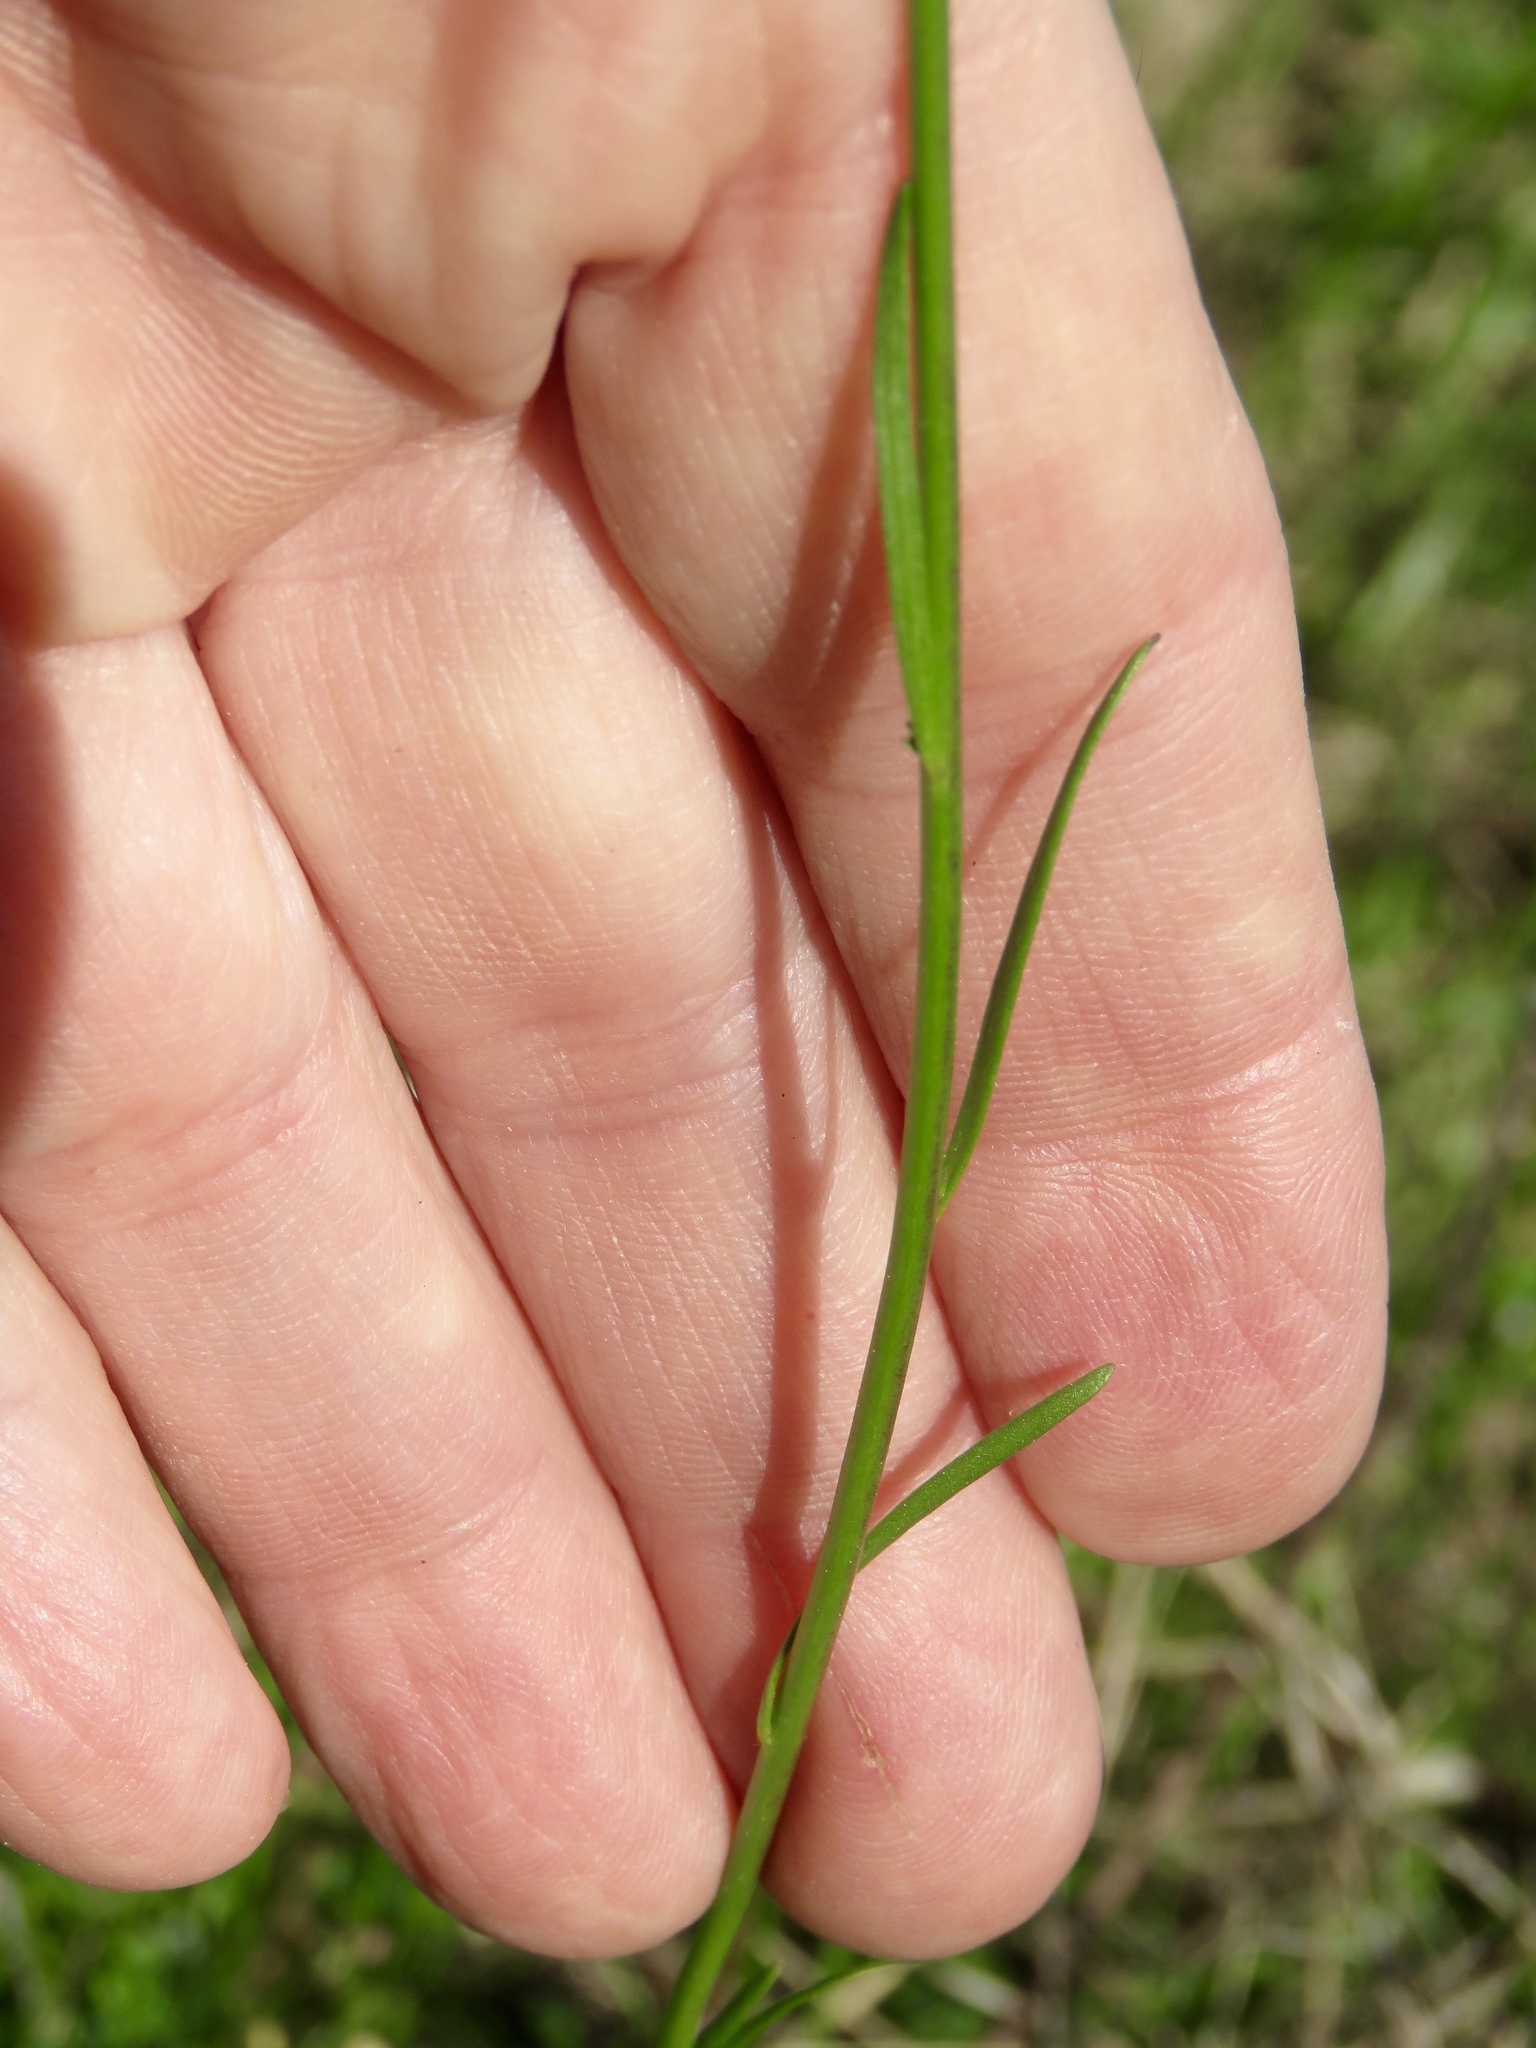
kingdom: Plantae
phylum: Tracheophyta
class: Magnoliopsida
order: Lamiales
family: Plantaginaceae
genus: Nuttallanthus
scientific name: Nuttallanthus texanus
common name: Texas toadflax
